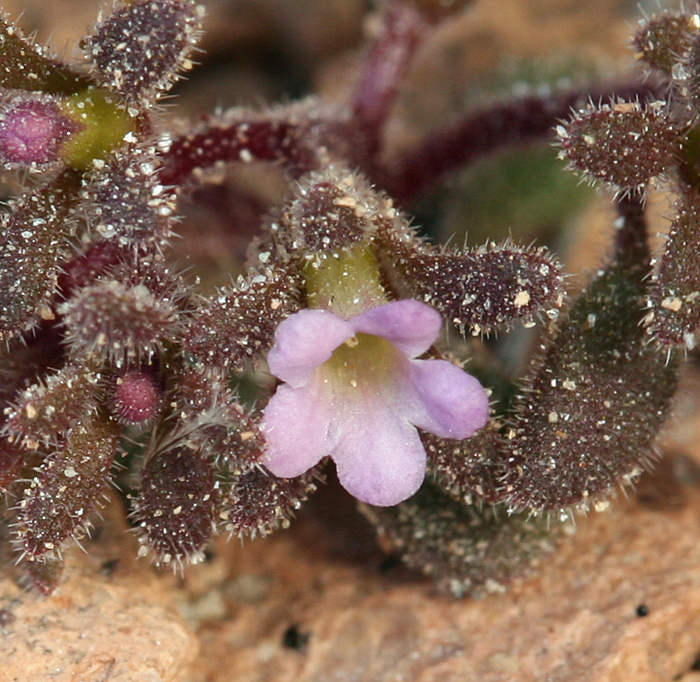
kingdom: Plantae
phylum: Tracheophyta
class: Magnoliopsida
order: Boraginales
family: Hydrophyllaceae
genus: Phacelia
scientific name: Phacelia saxicola
